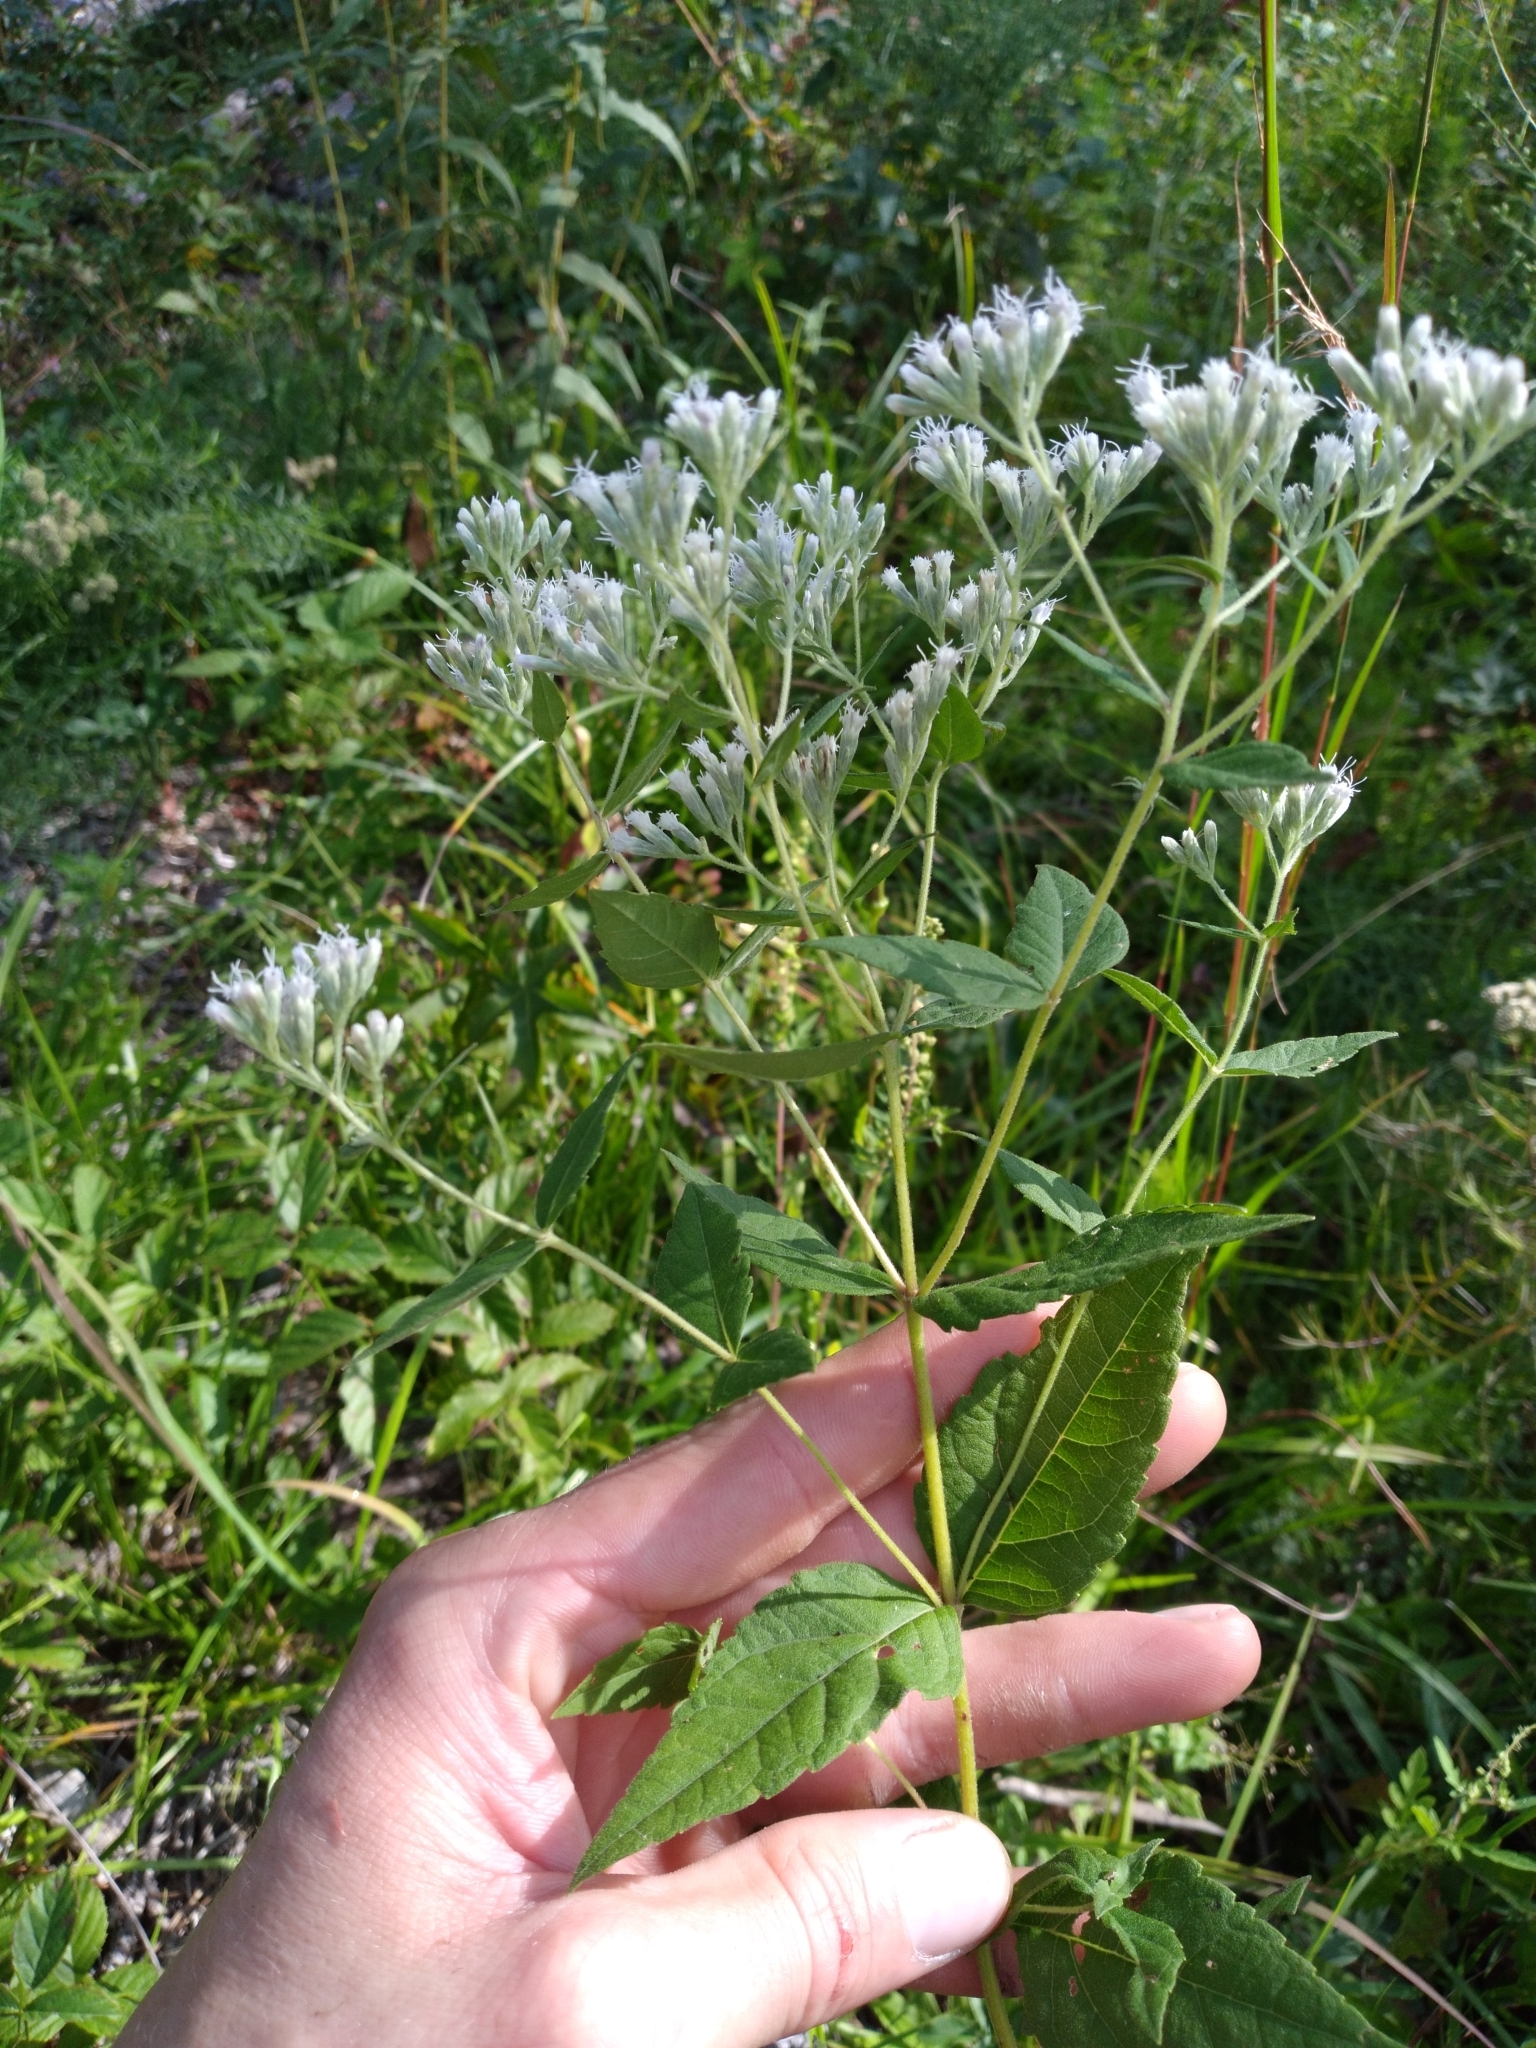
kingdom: Plantae
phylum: Tracheophyta
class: Magnoliopsida
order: Asterales
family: Asteraceae
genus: Eupatorium
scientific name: Eupatorium godfreyanum
